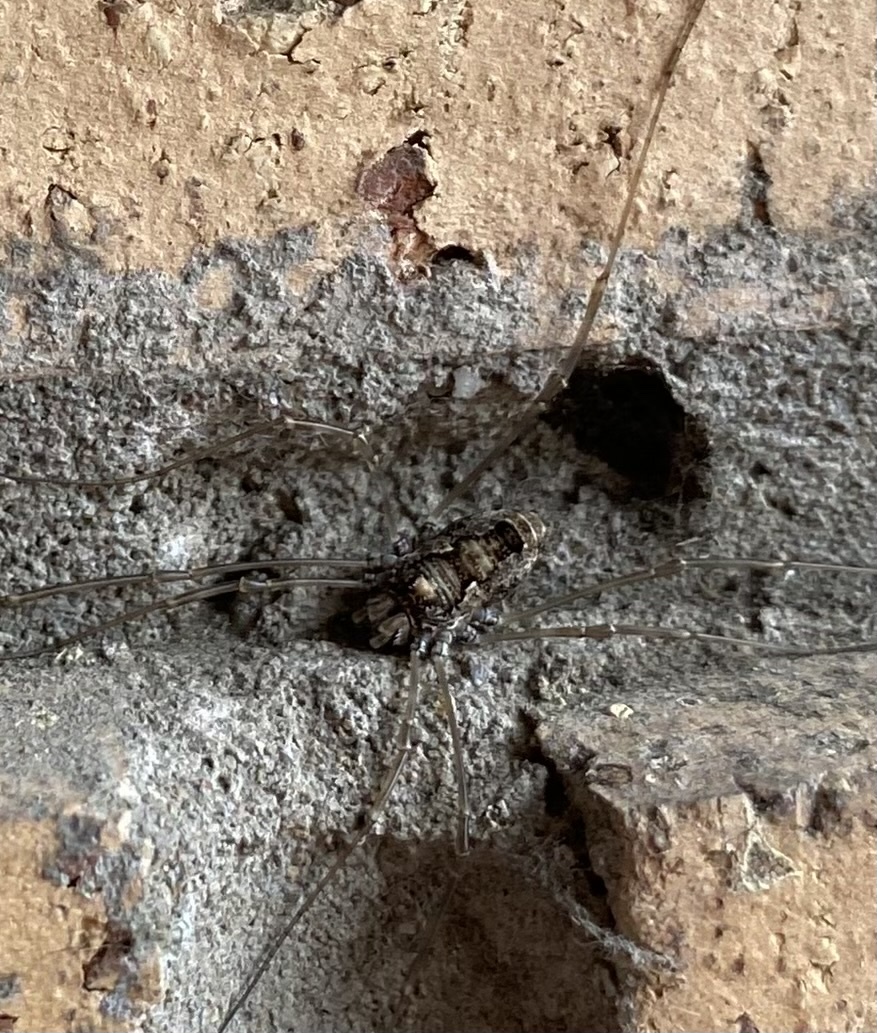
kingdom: Animalia
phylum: Arthropoda
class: Arachnida
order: Opiliones
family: Phalangiidae
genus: Platybunus
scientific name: Platybunus pinetorum
